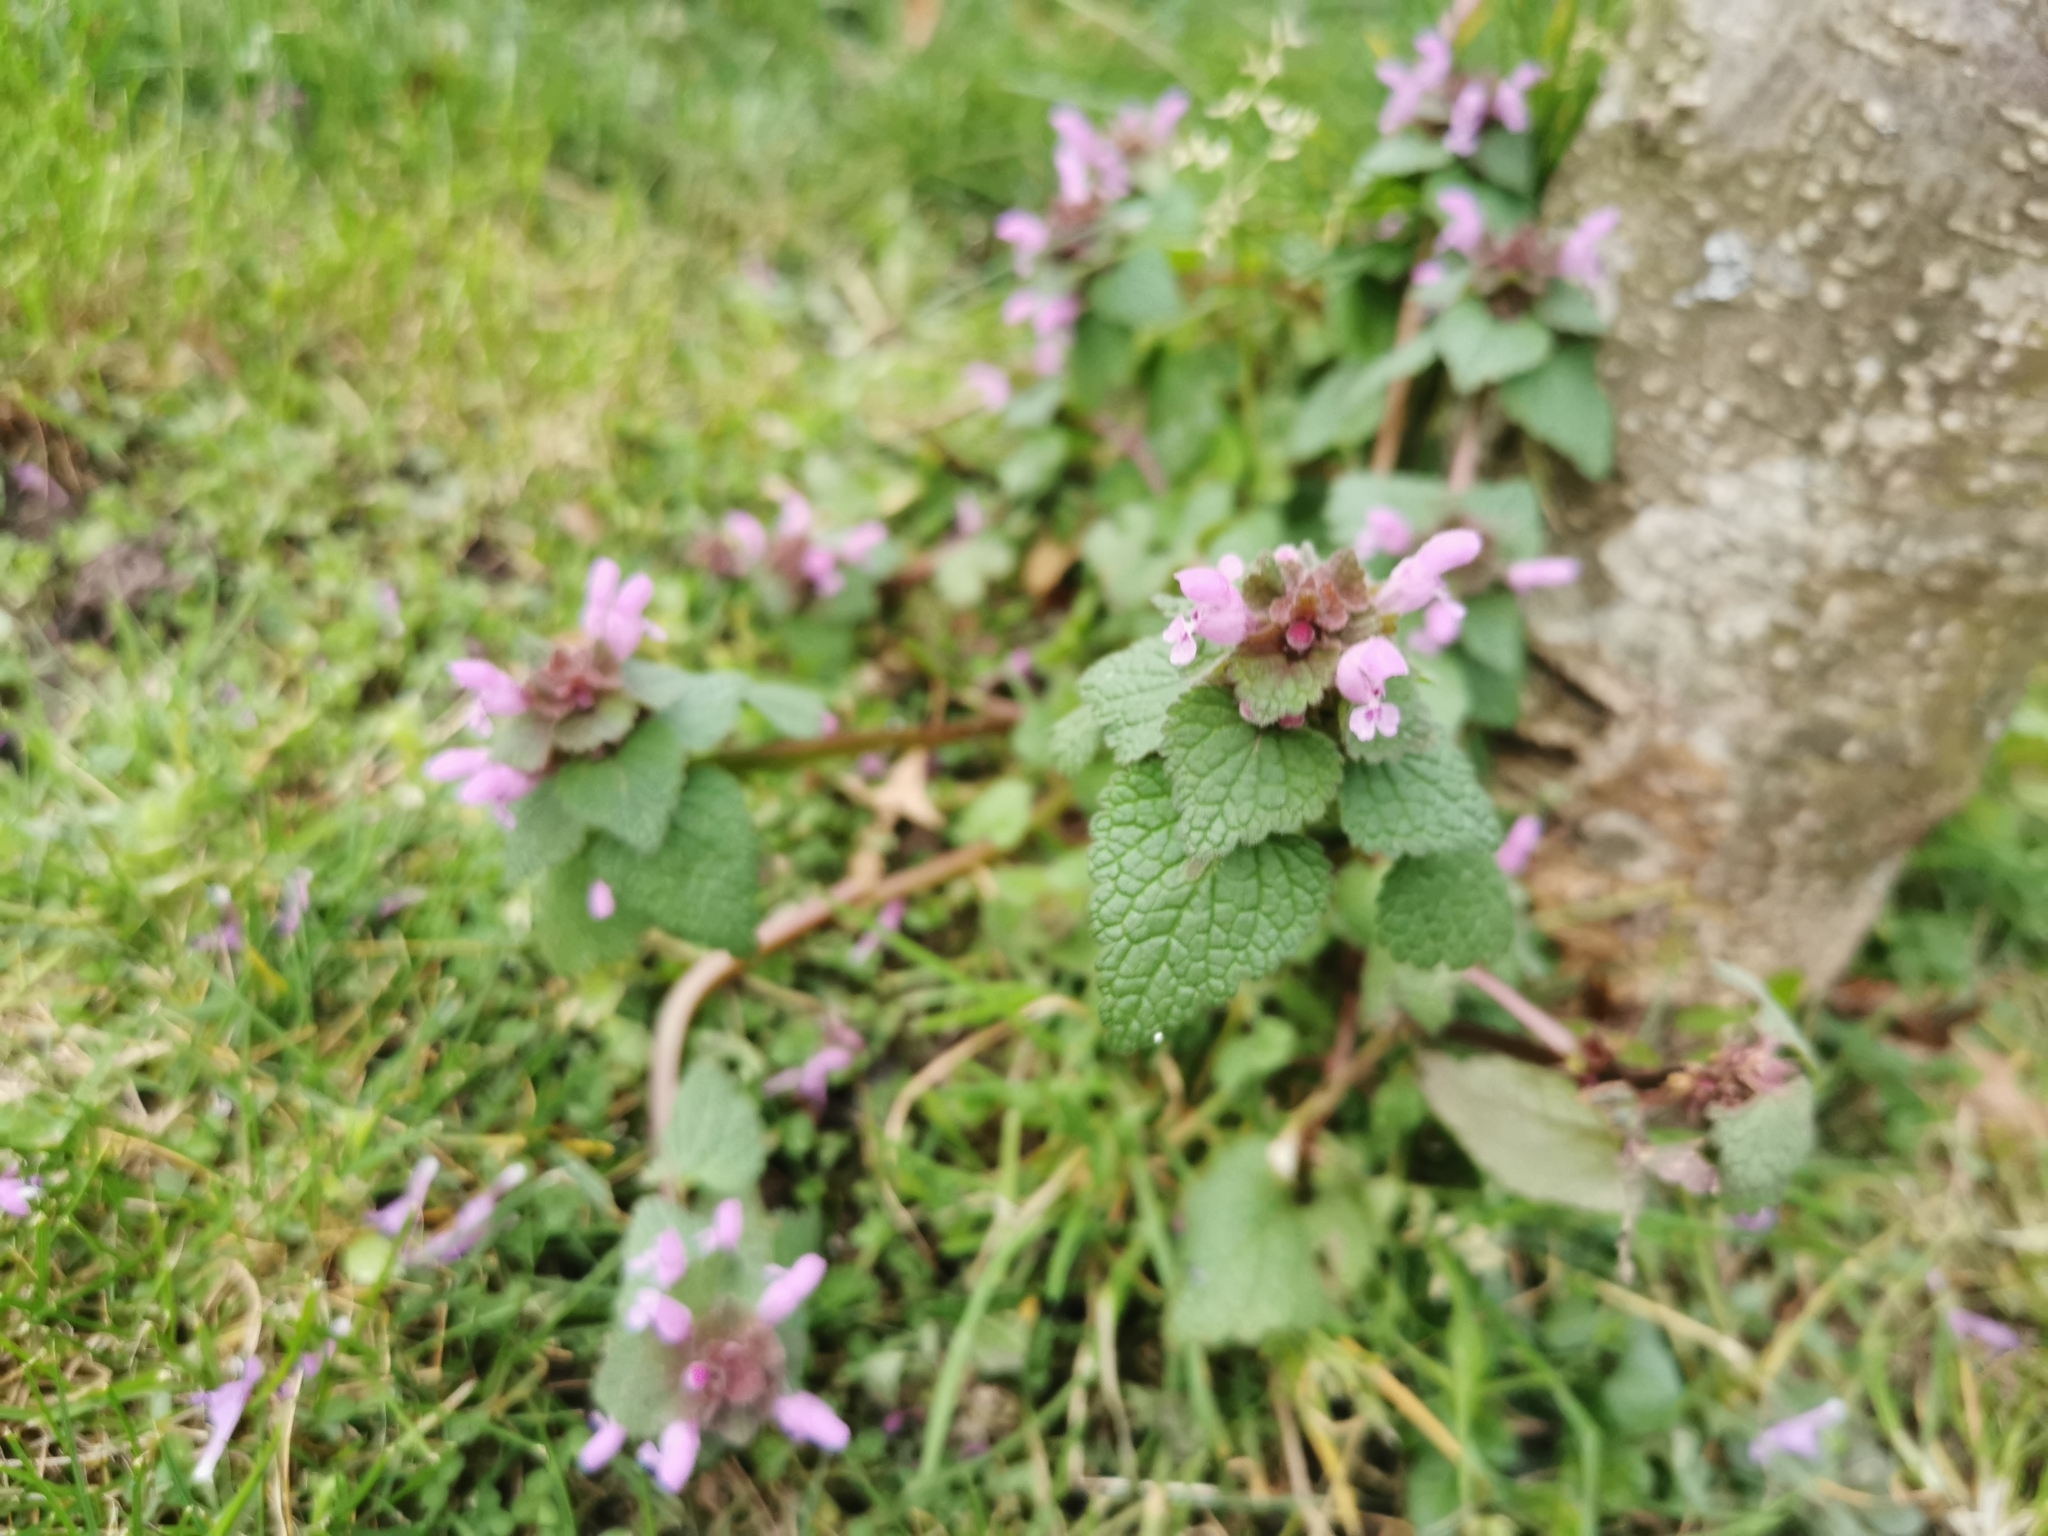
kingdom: Plantae
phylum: Tracheophyta
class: Magnoliopsida
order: Lamiales
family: Lamiaceae
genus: Lamium
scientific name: Lamium purpureum
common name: Red dead-nettle
